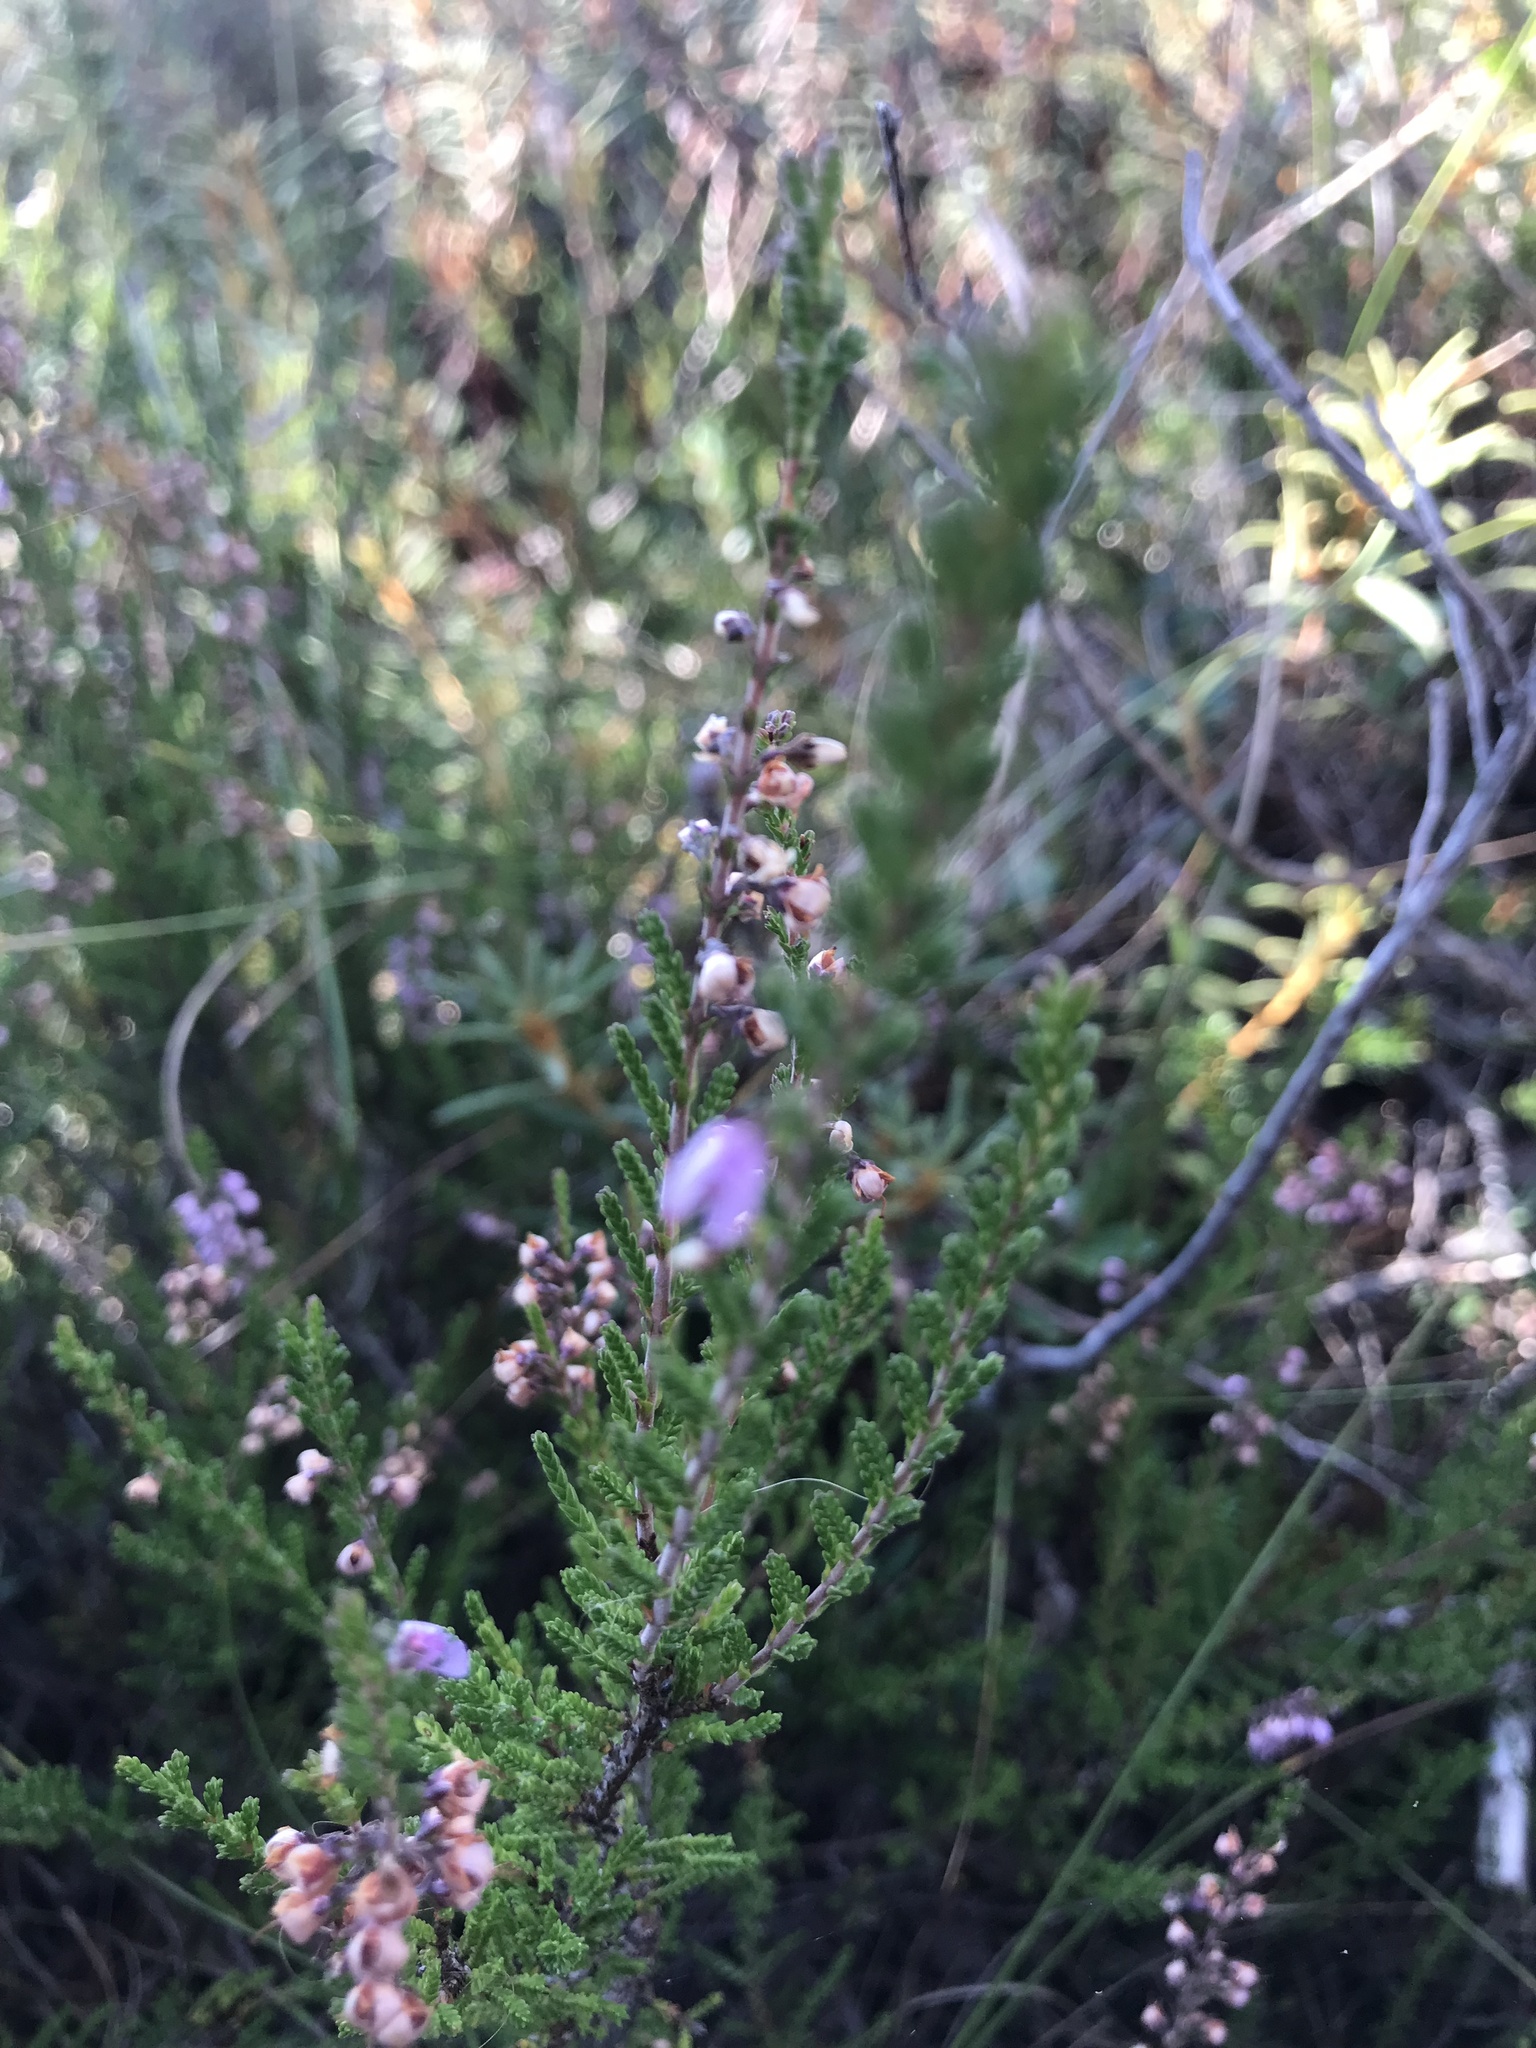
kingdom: Plantae
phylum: Tracheophyta
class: Magnoliopsida
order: Ericales
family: Ericaceae
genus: Calluna
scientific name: Calluna vulgaris
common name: Heather
